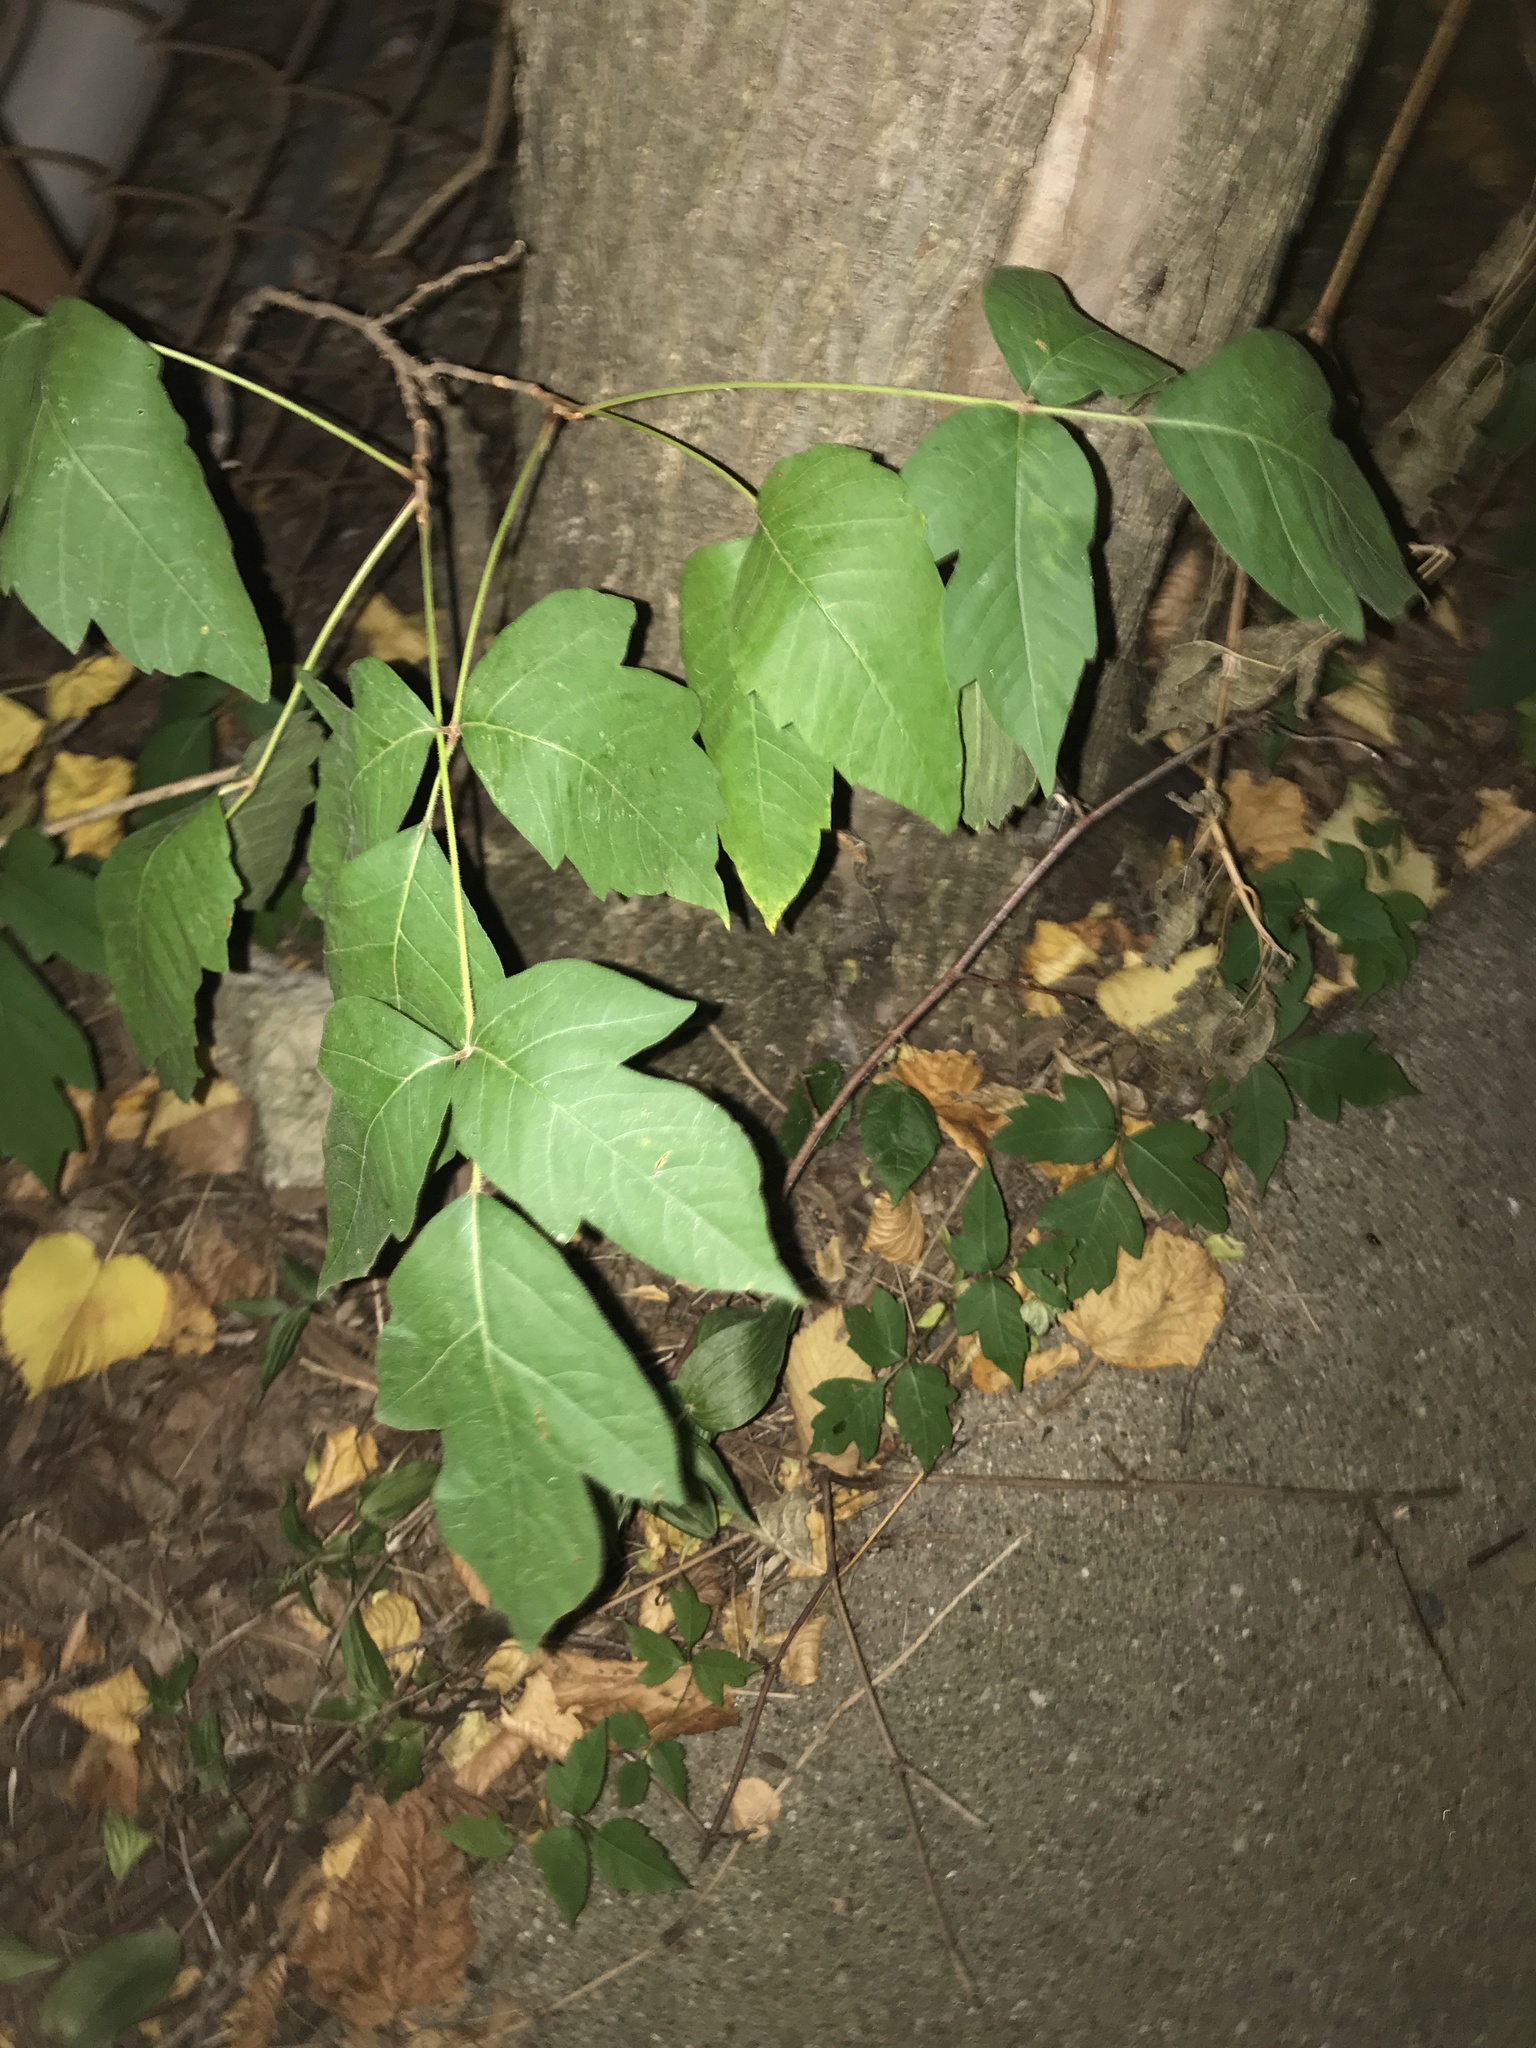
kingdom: Plantae
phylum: Tracheophyta
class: Magnoliopsida
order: Sapindales
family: Anacardiaceae
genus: Toxicodendron
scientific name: Toxicodendron radicans
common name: Poison ivy
